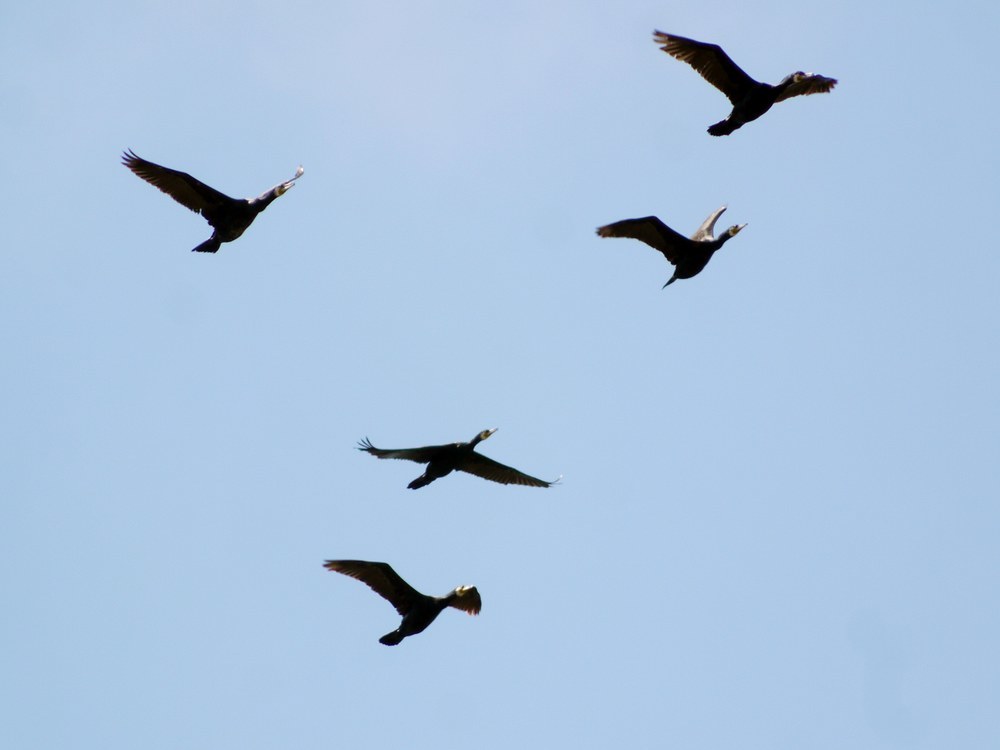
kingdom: Animalia
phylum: Chordata
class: Aves
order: Suliformes
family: Phalacrocoracidae
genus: Phalacrocorax
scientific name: Phalacrocorax carbo
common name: Great cormorant
